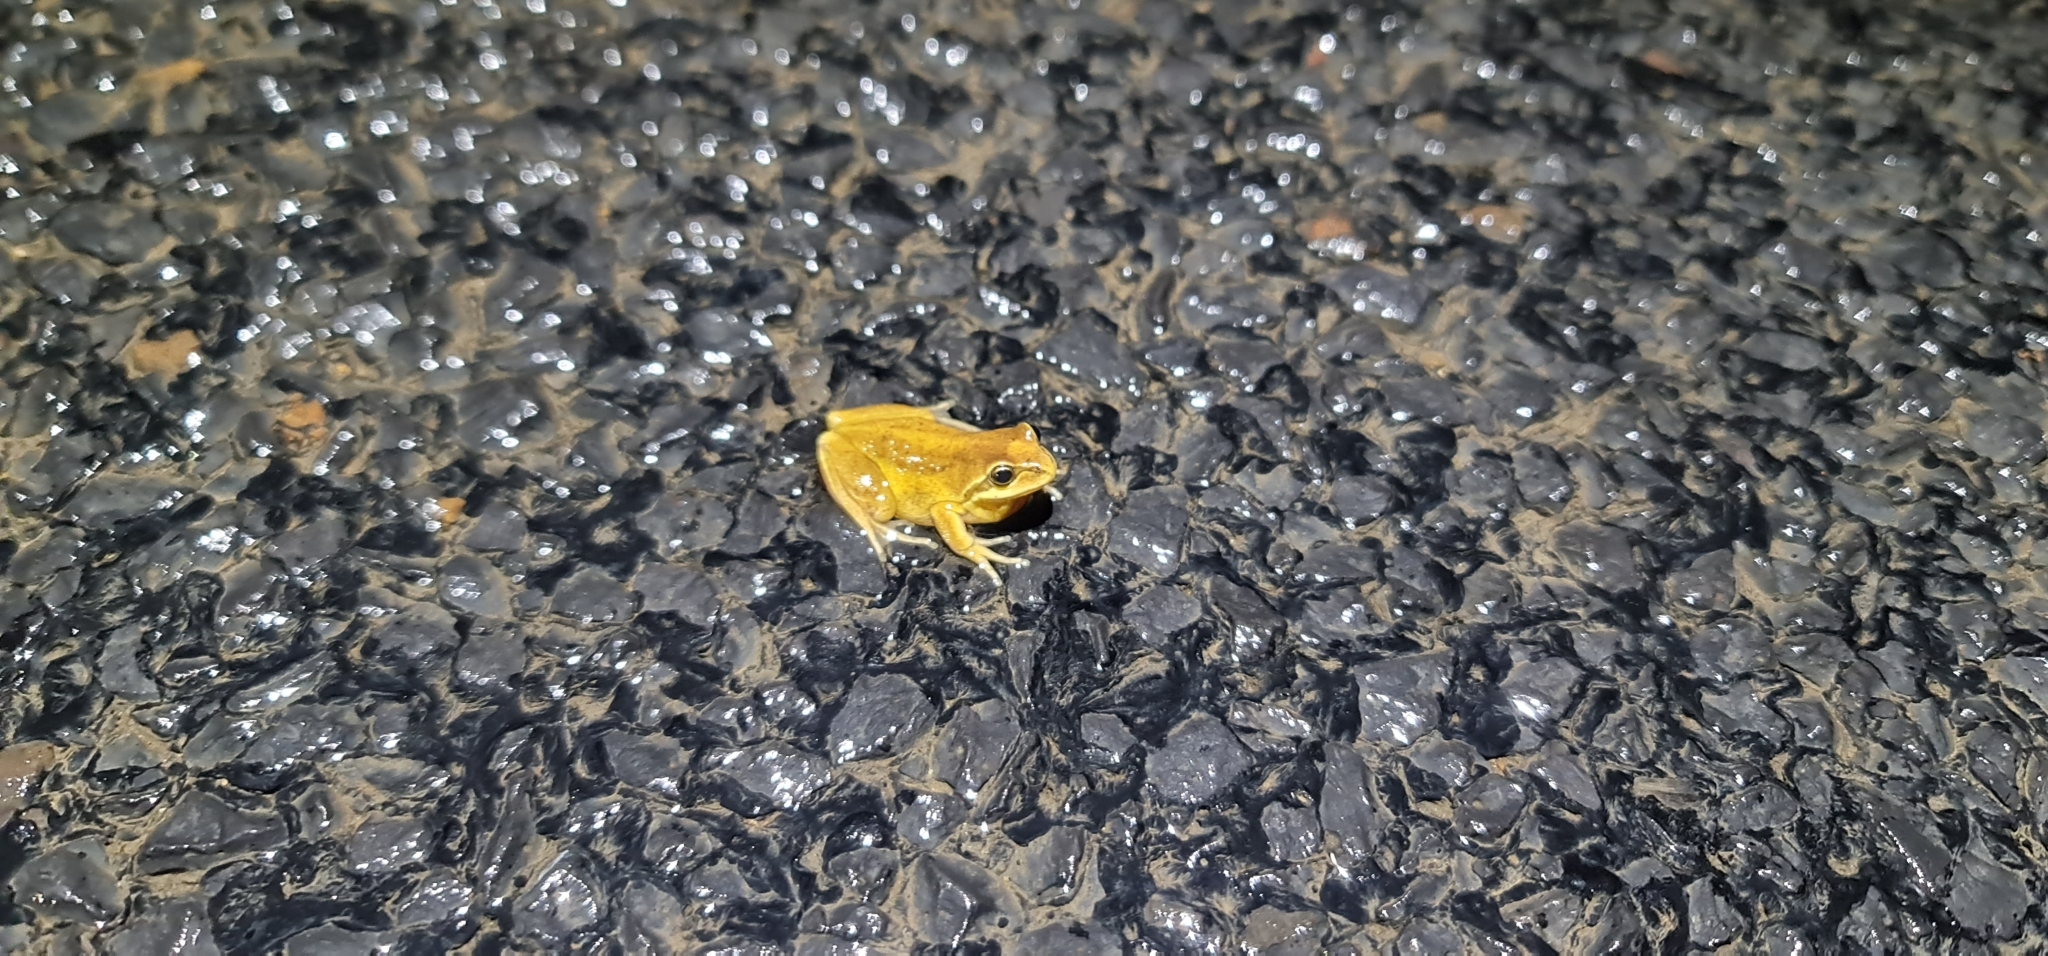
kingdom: Animalia
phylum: Chordata
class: Amphibia
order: Anura
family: Pelodryadidae
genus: Litoria
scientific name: Litoria verreauxii
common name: Alpine tree frog
